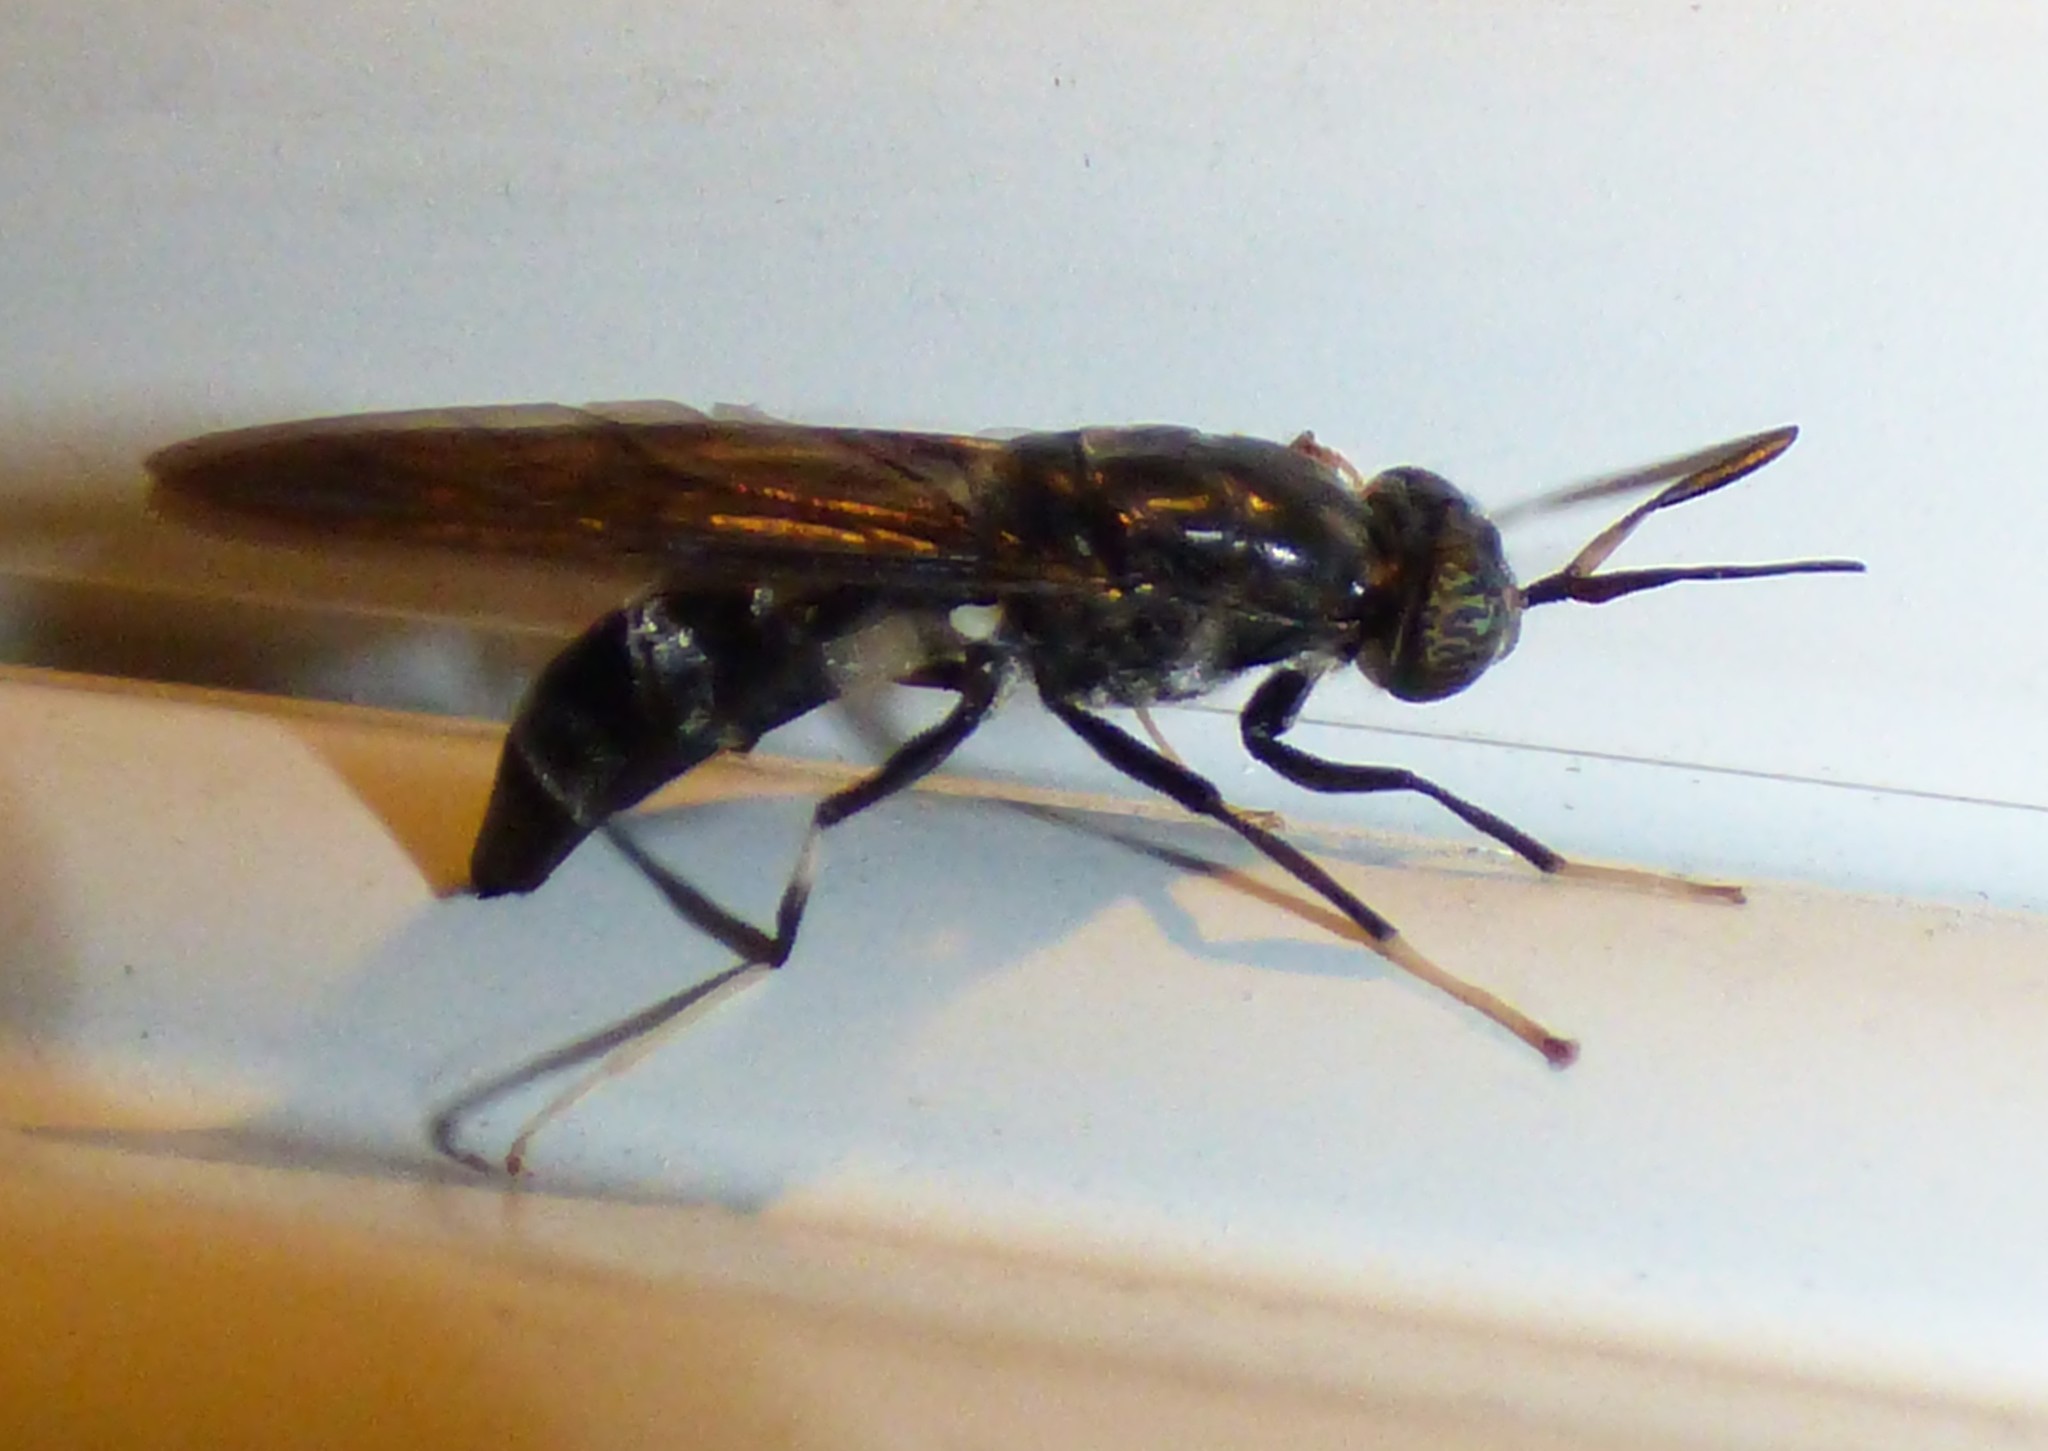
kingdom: Animalia
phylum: Arthropoda
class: Insecta
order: Diptera
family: Stratiomyidae
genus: Hermetia
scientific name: Hermetia illucens
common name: Black soldier fly
